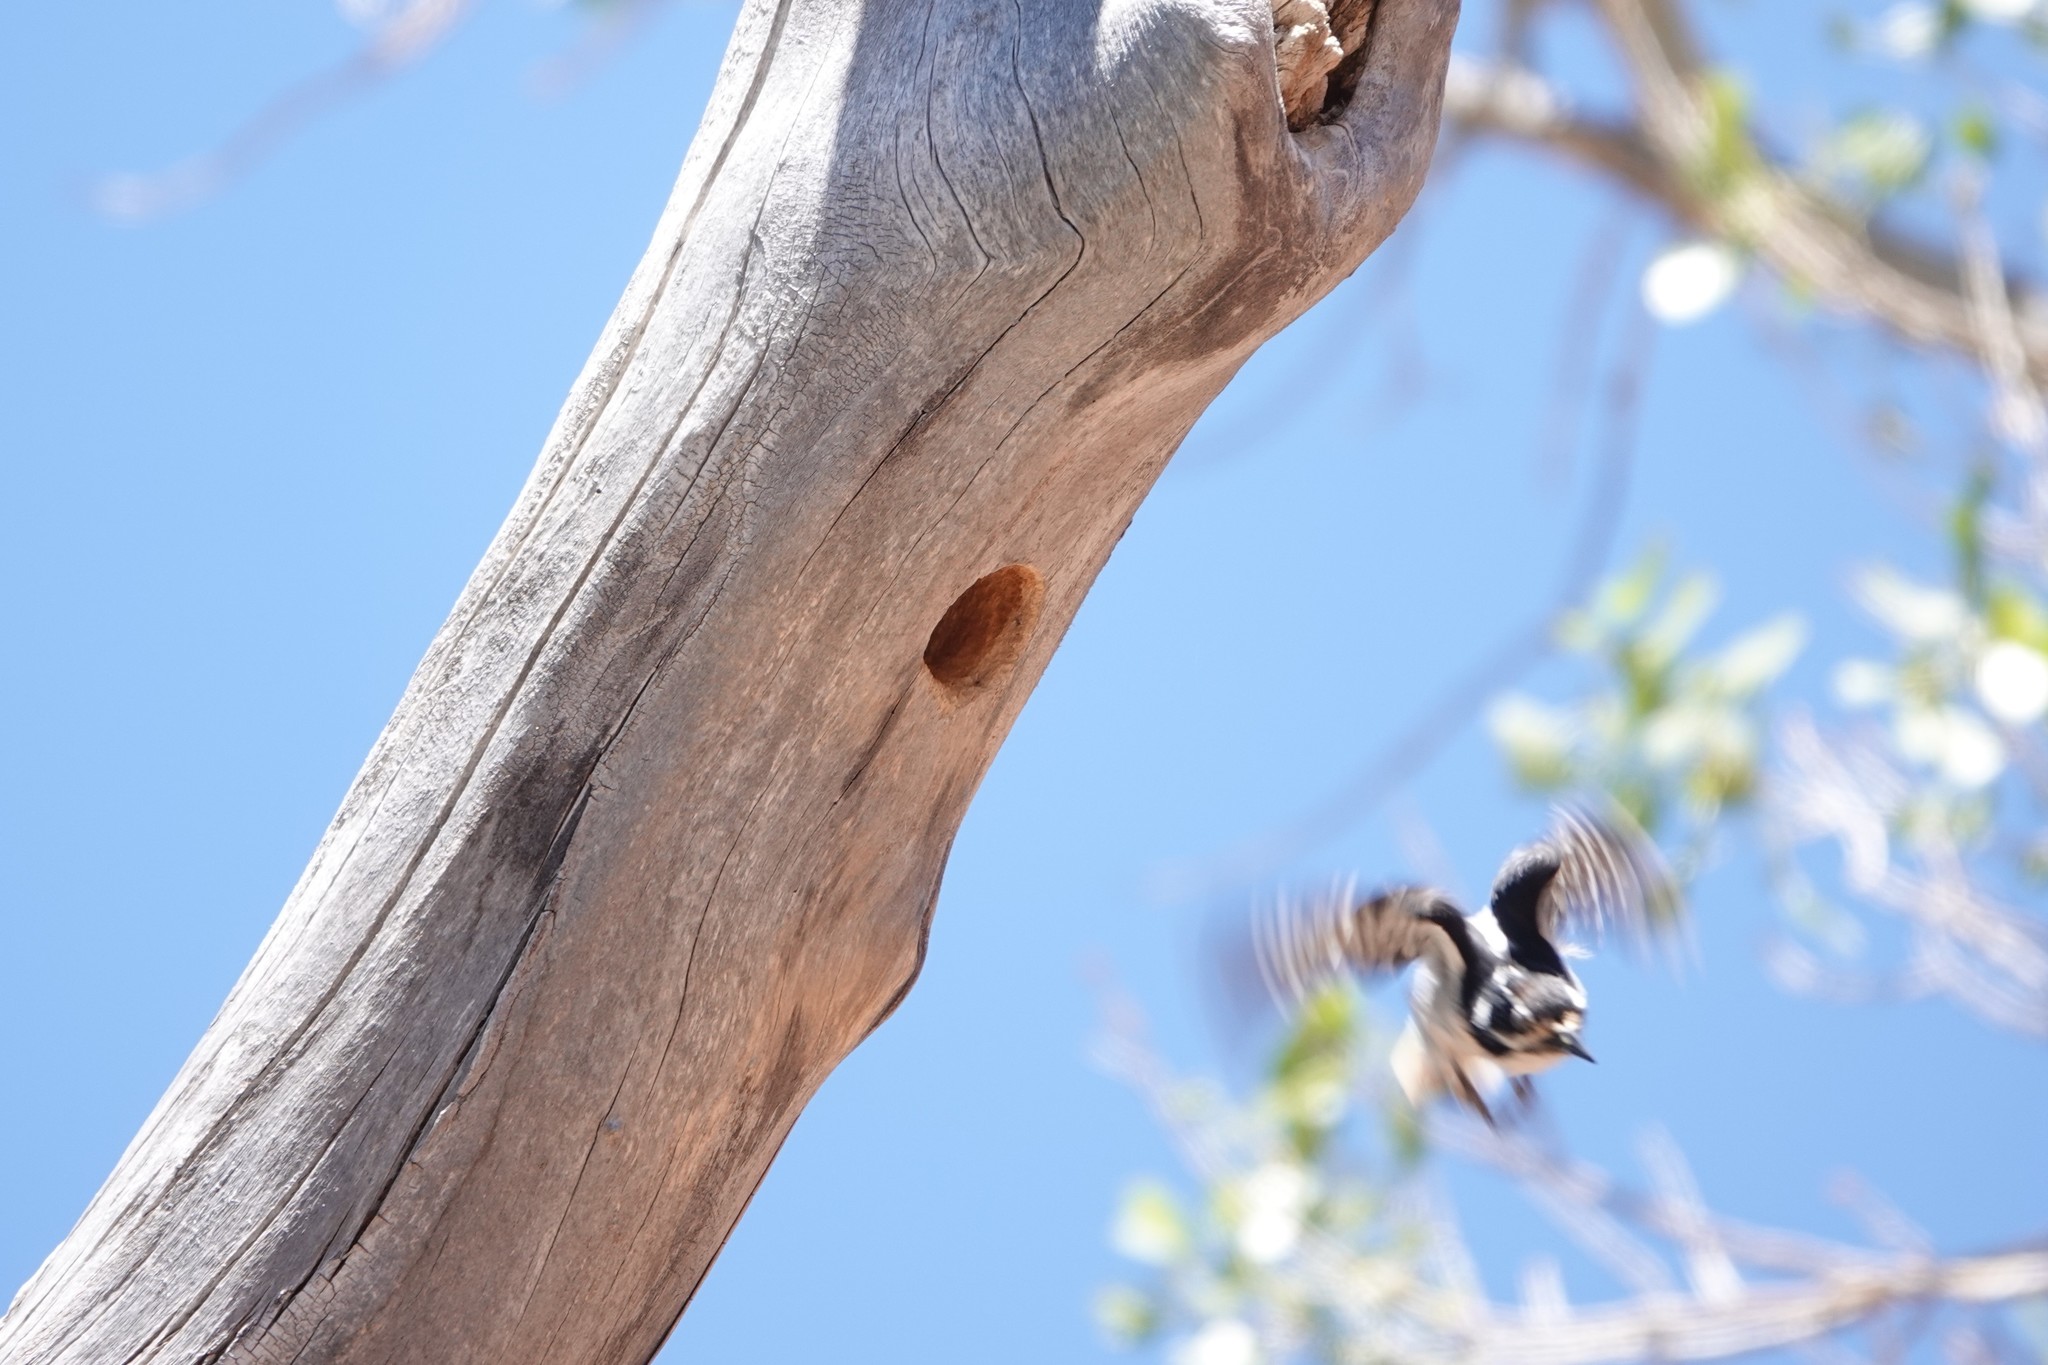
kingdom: Animalia
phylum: Chordata
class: Aves
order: Piciformes
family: Picidae
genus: Leuconotopicus
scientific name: Leuconotopicus villosus
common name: Hairy woodpecker
